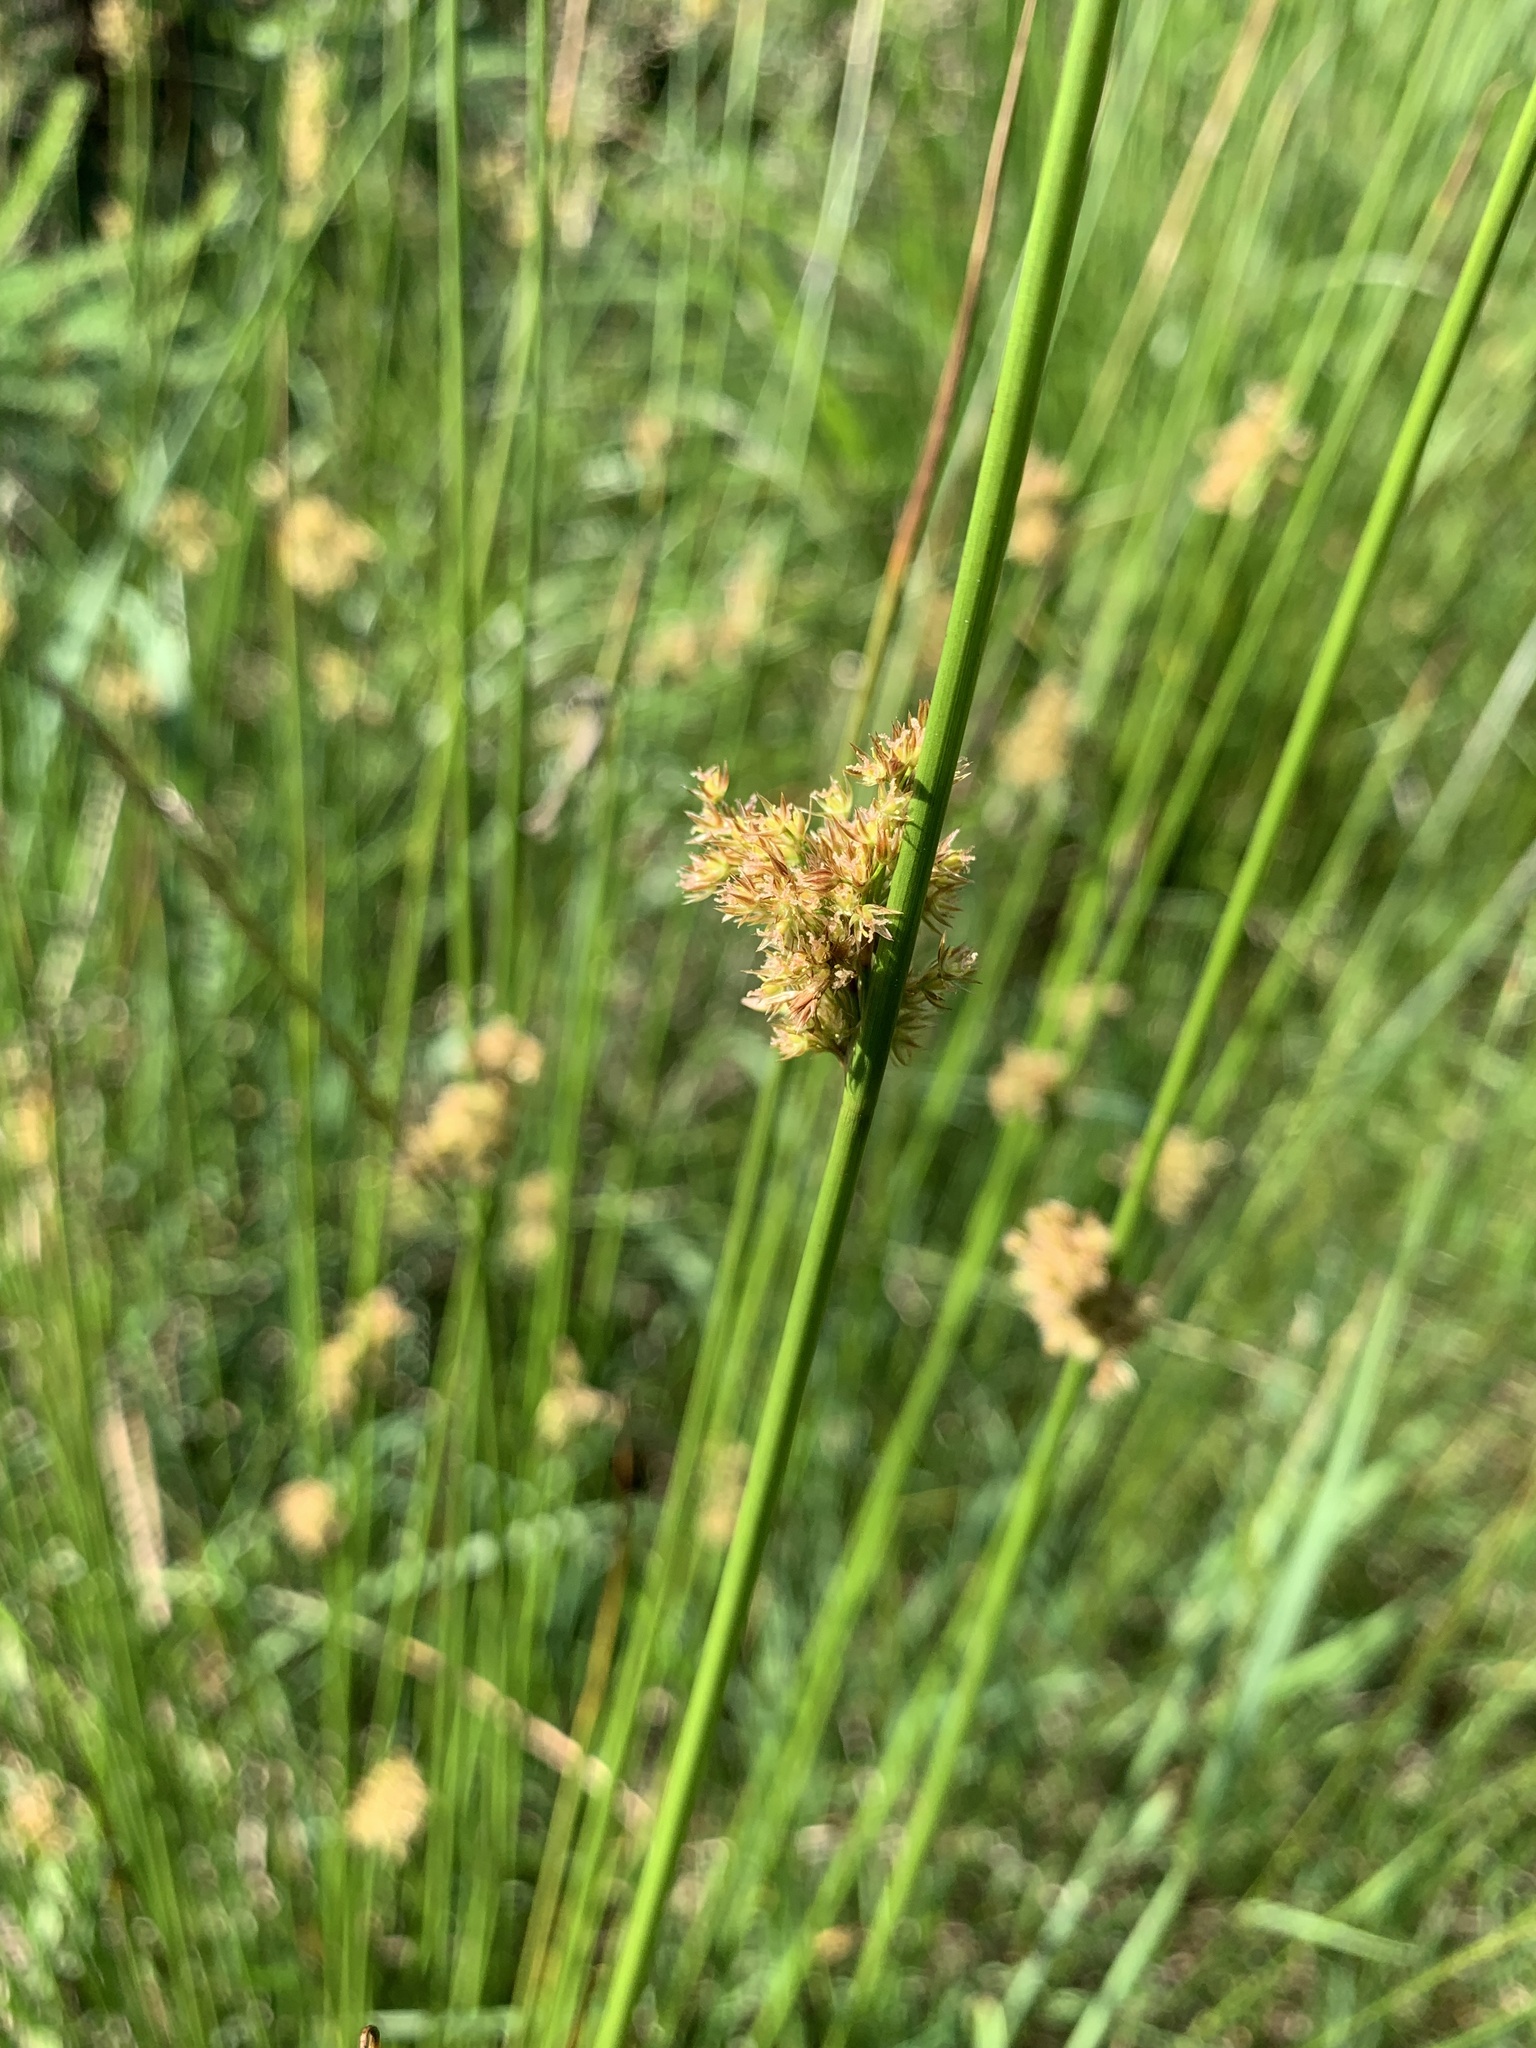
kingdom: Plantae
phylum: Tracheophyta
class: Liliopsida
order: Poales
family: Juncaceae
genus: Juncus
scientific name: Juncus effusus
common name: Soft rush
